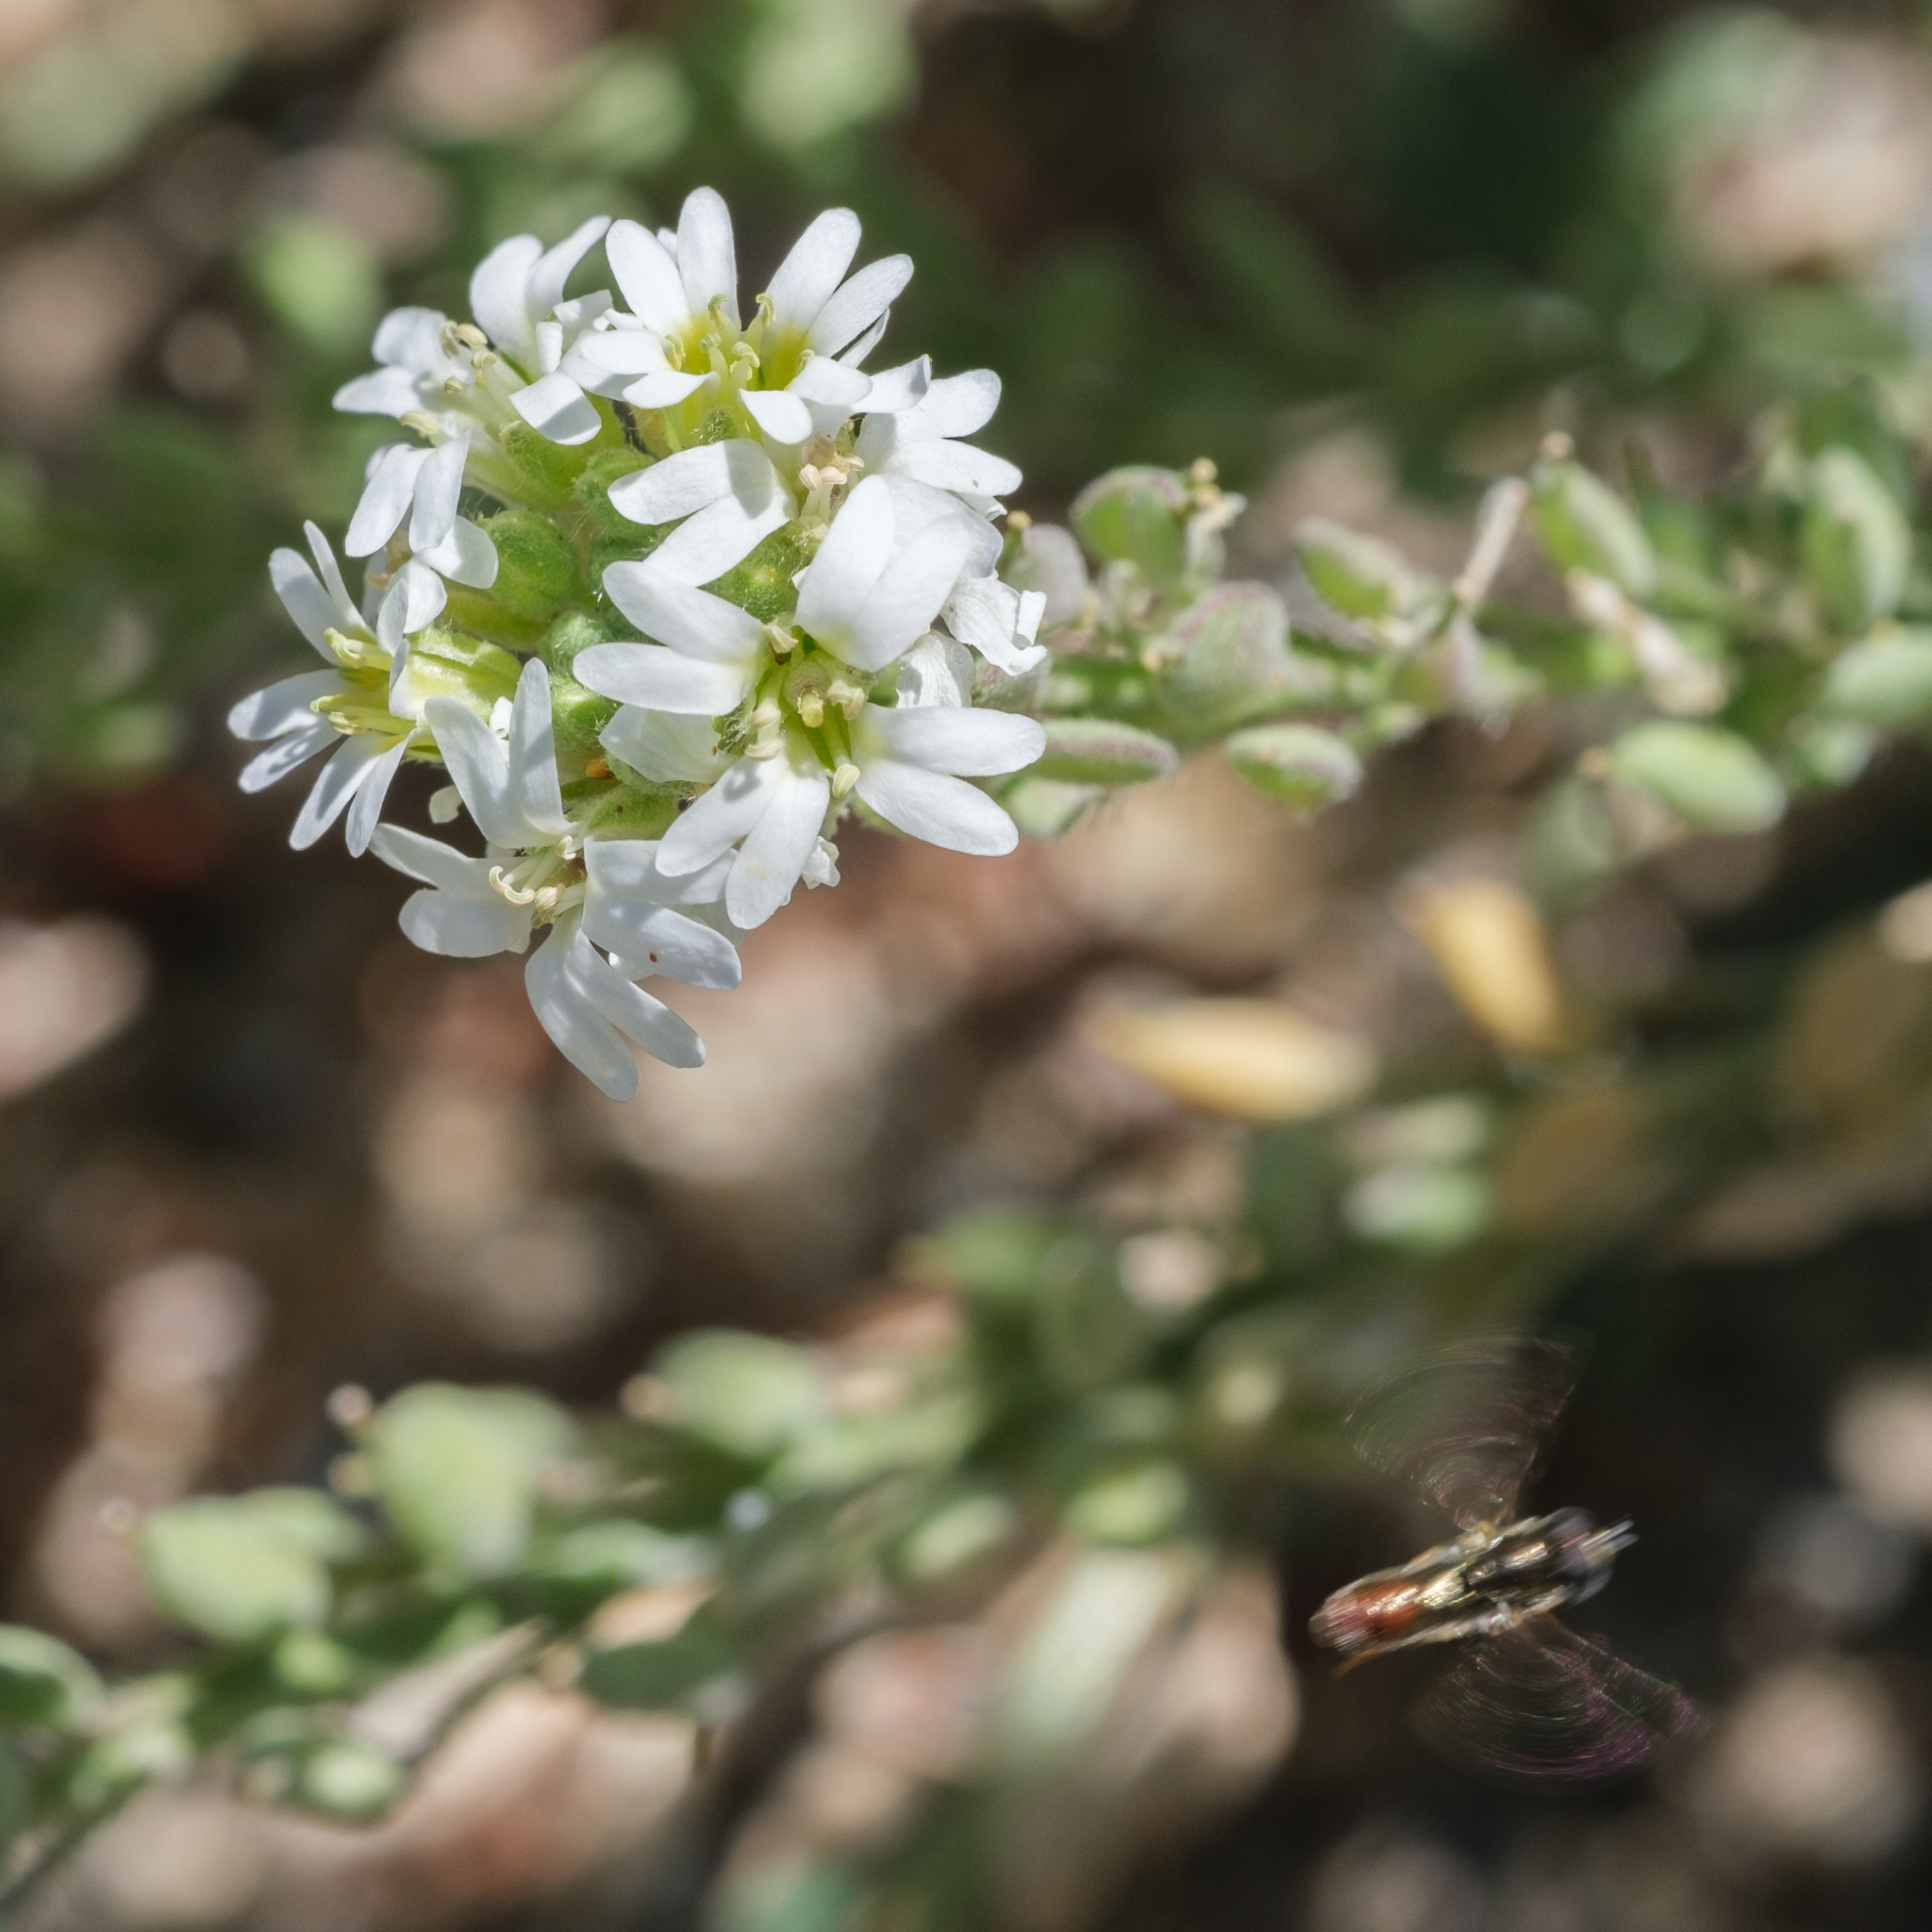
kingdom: Plantae
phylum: Tracheophyta
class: Magnoliopsida
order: Brassicales
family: Brassicaceae
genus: Berteroa
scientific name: Berteroa incana
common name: Hoary alison
